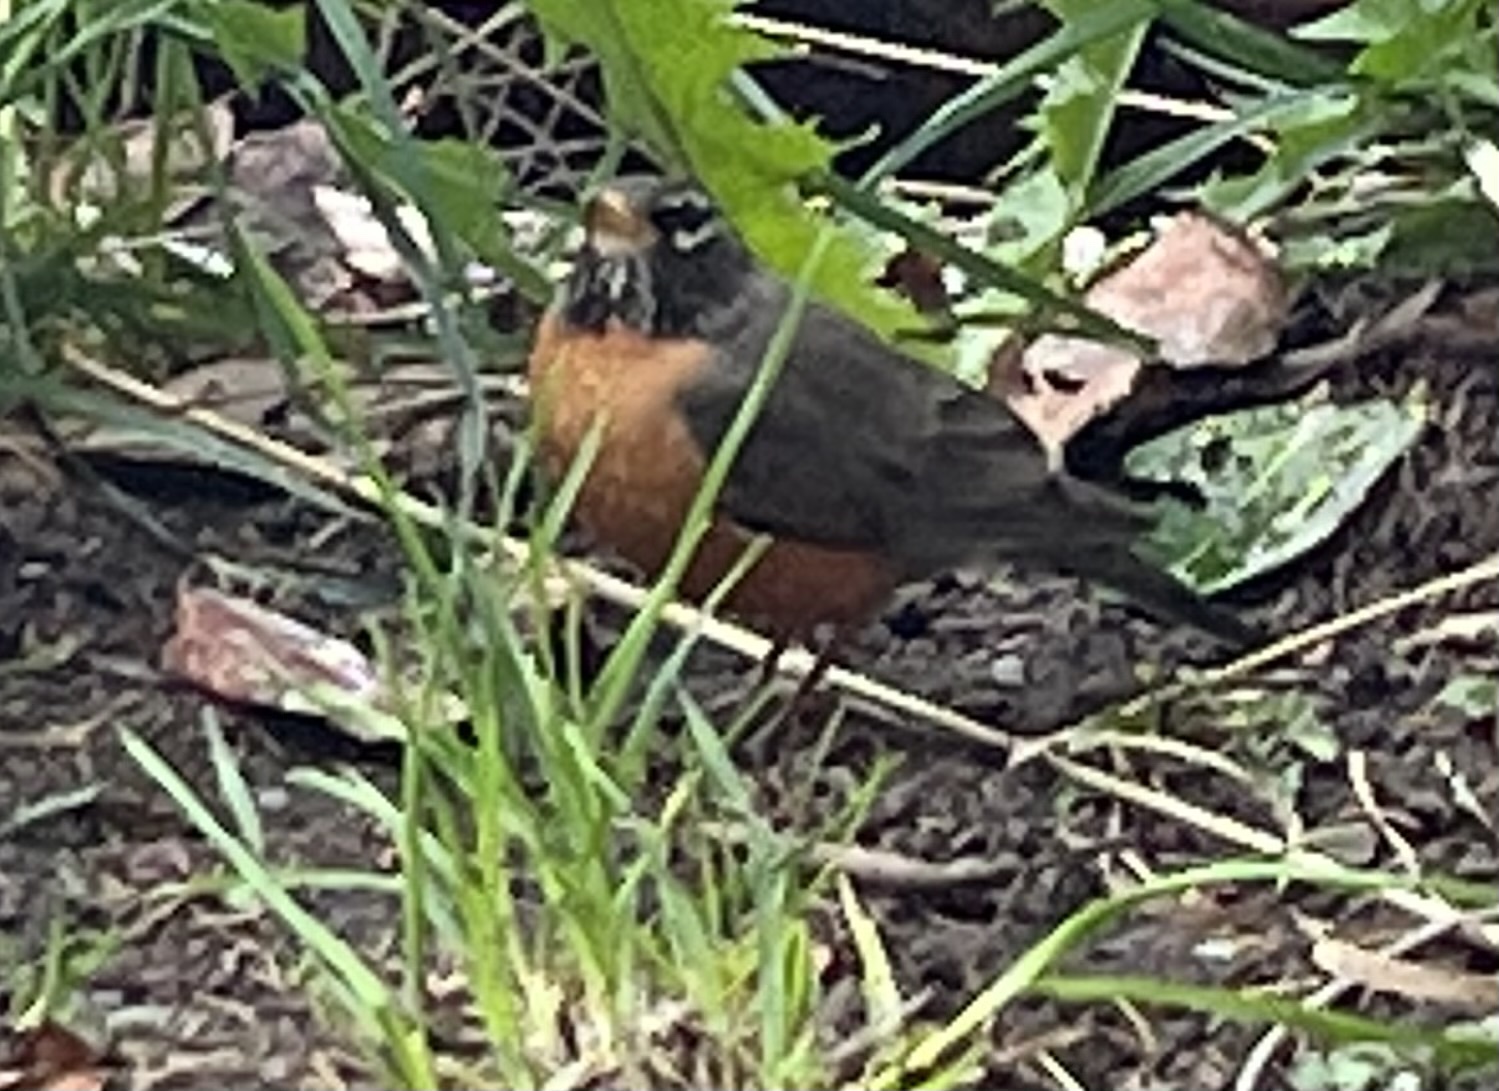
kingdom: Animalia
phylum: Chordata
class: Aves
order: Passeriformes
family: Turdidae
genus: Turdus
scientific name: Turdus migratorius
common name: American robin
